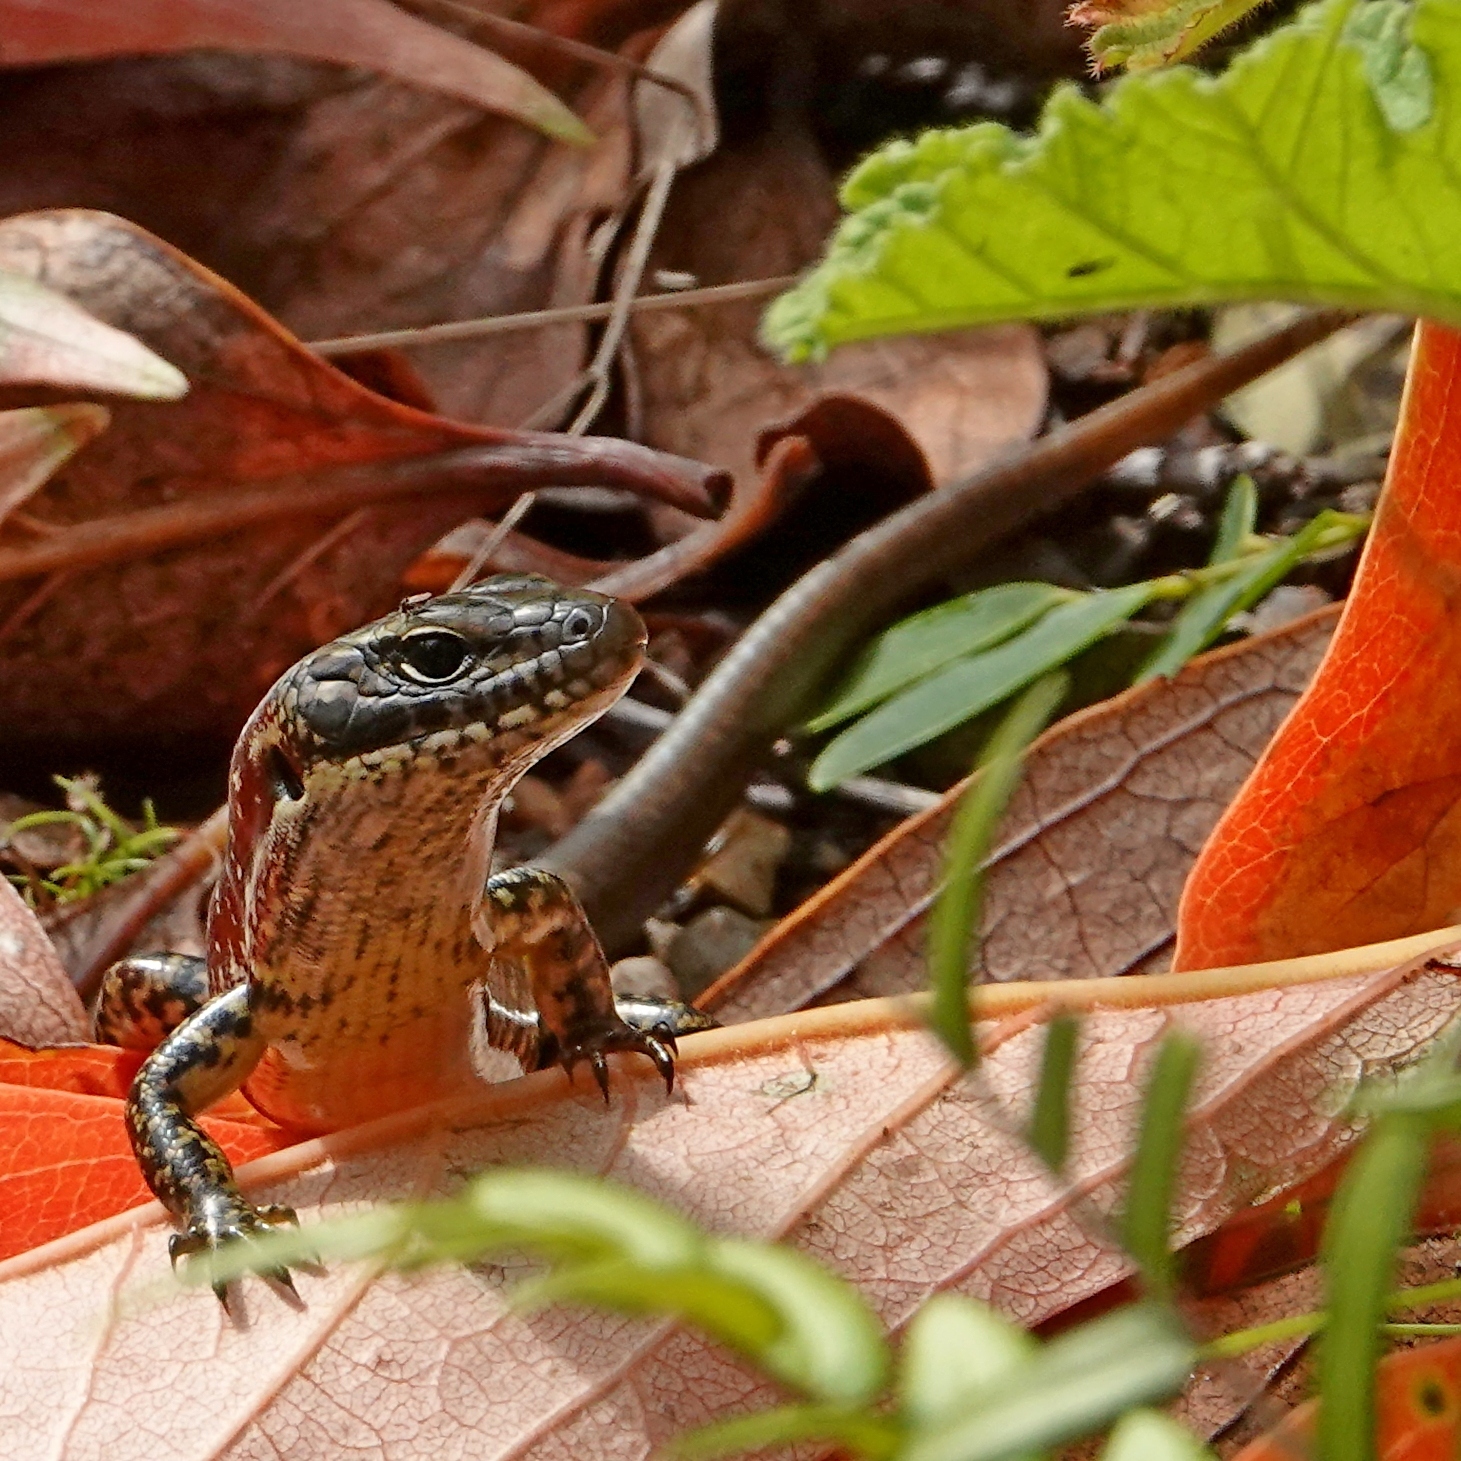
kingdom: Animalia
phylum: Chordata
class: Squamata
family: Scincidae
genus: Eulamprus
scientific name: Eulamprus heatwolei
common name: Warm-temperate water-skink
